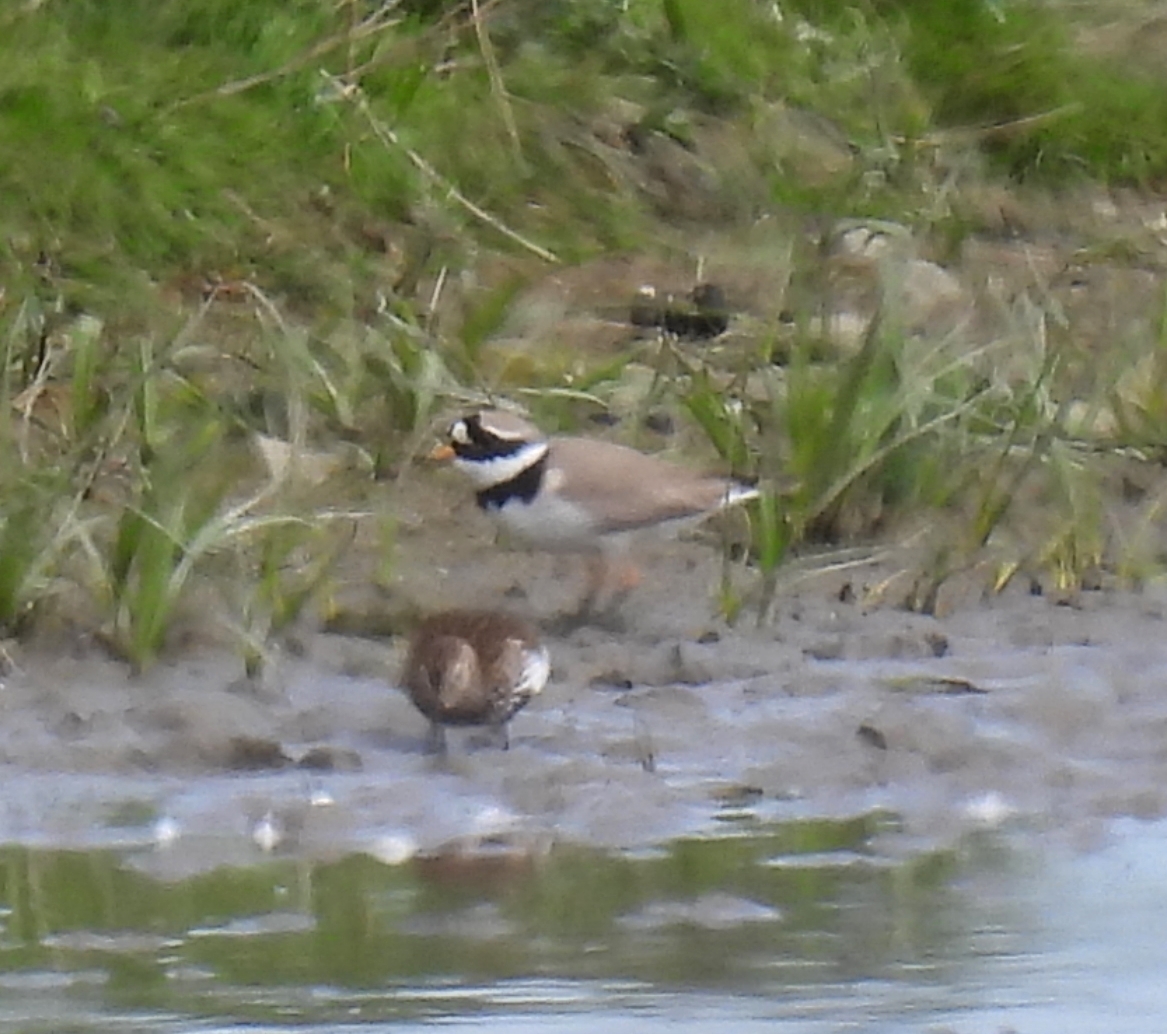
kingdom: Animalia
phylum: Chordata
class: Aves
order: Charadriiformes
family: Charadriidae
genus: Charadrius
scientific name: Charadrius hiaticula
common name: Common ringed plover
